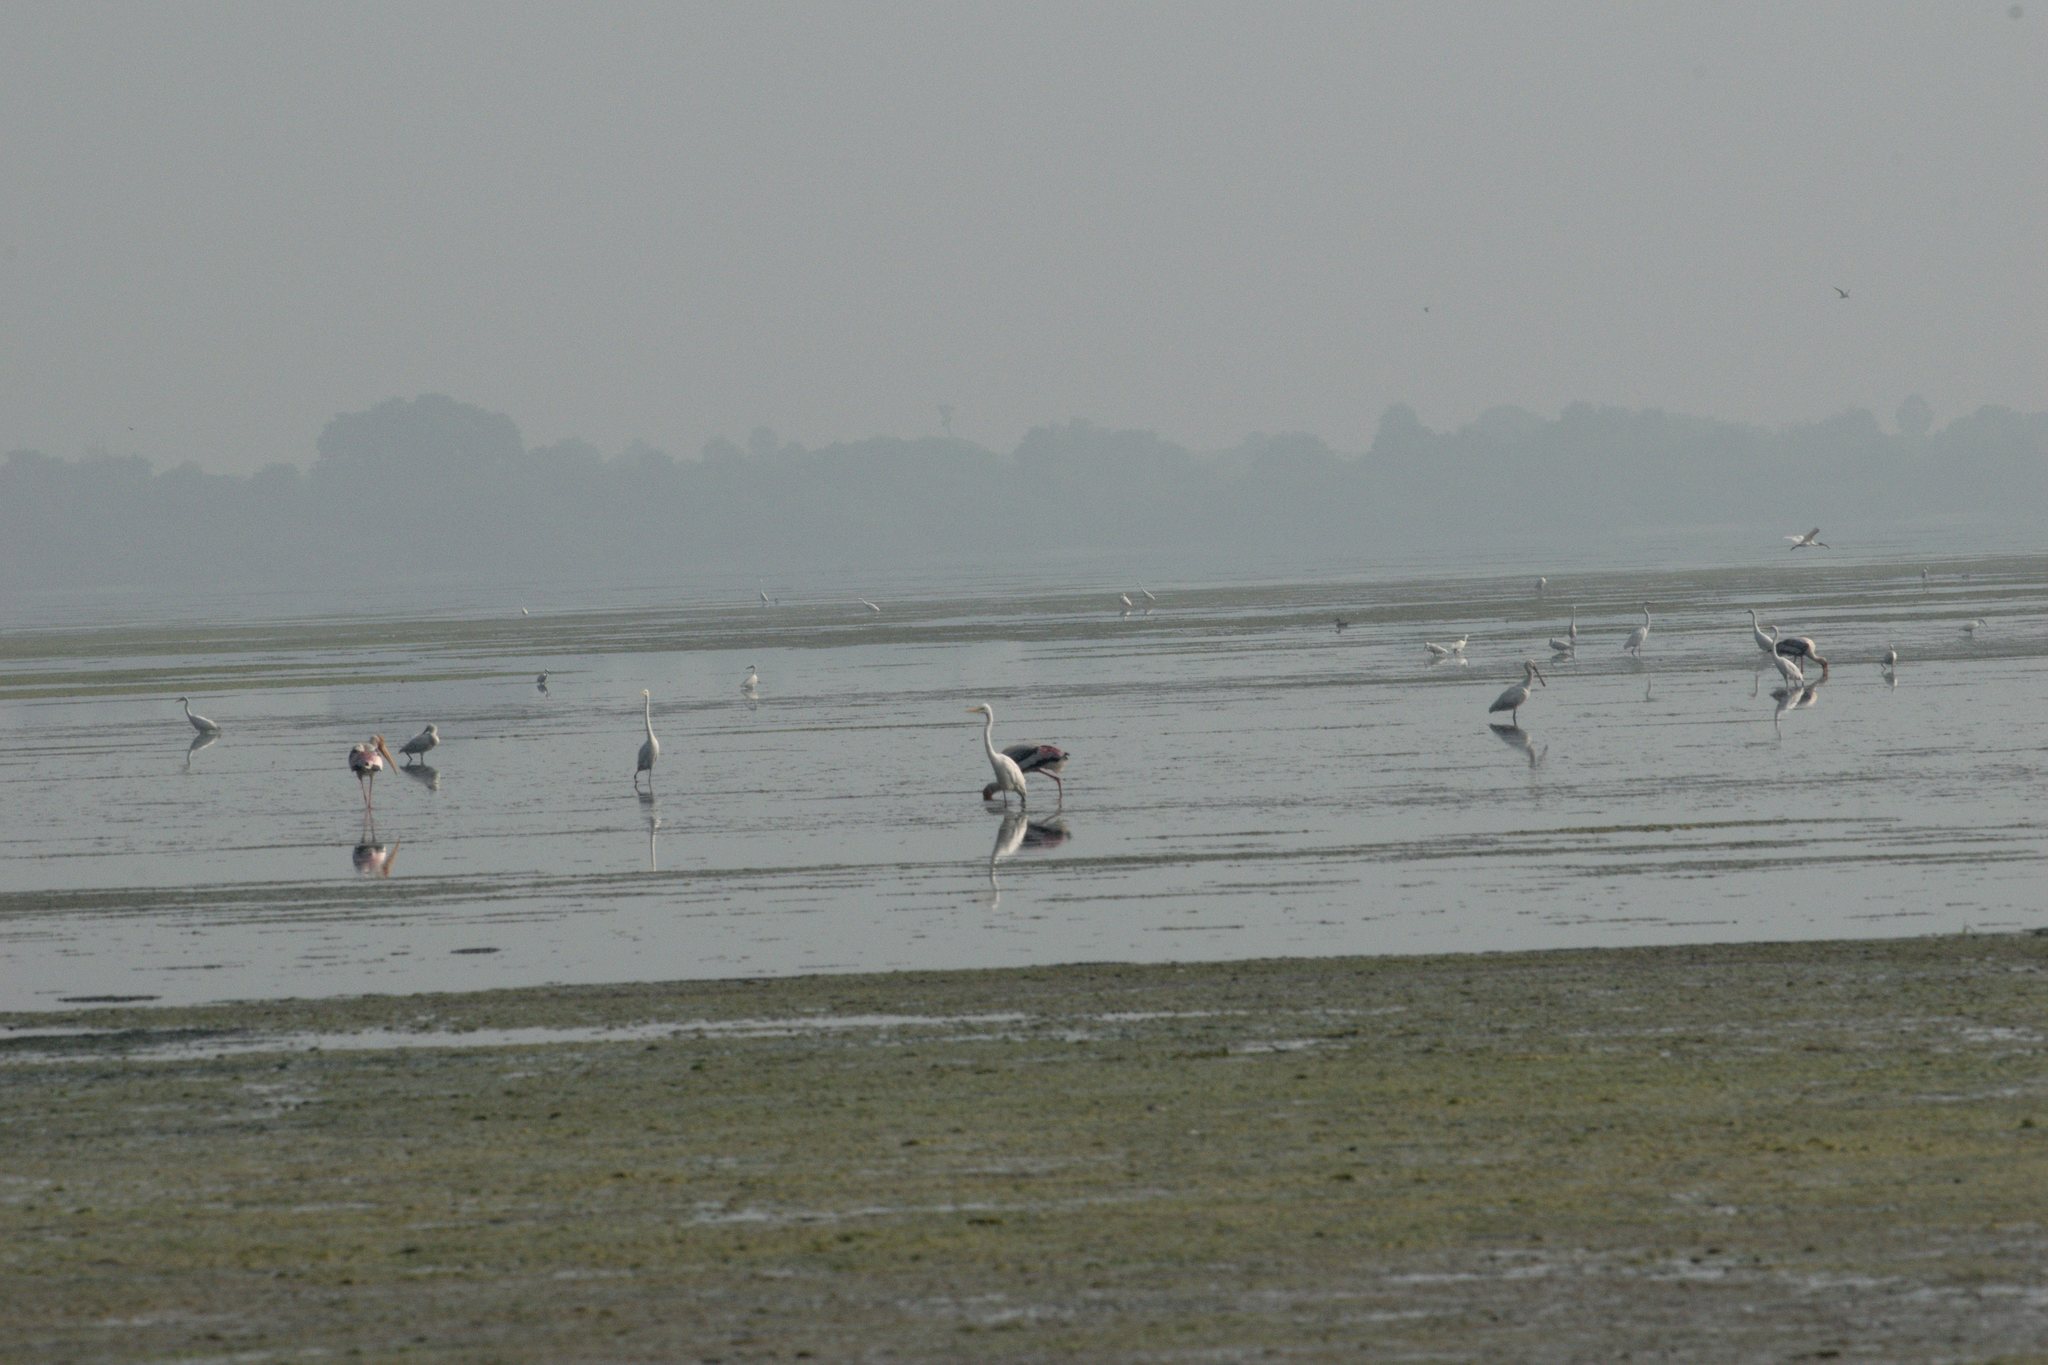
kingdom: Animalia
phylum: Chordata
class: Aves
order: Pelecaniformes
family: Threskiornithidae
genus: Platalea
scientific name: Platalea leucorodia
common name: Eurasian spoonbill
